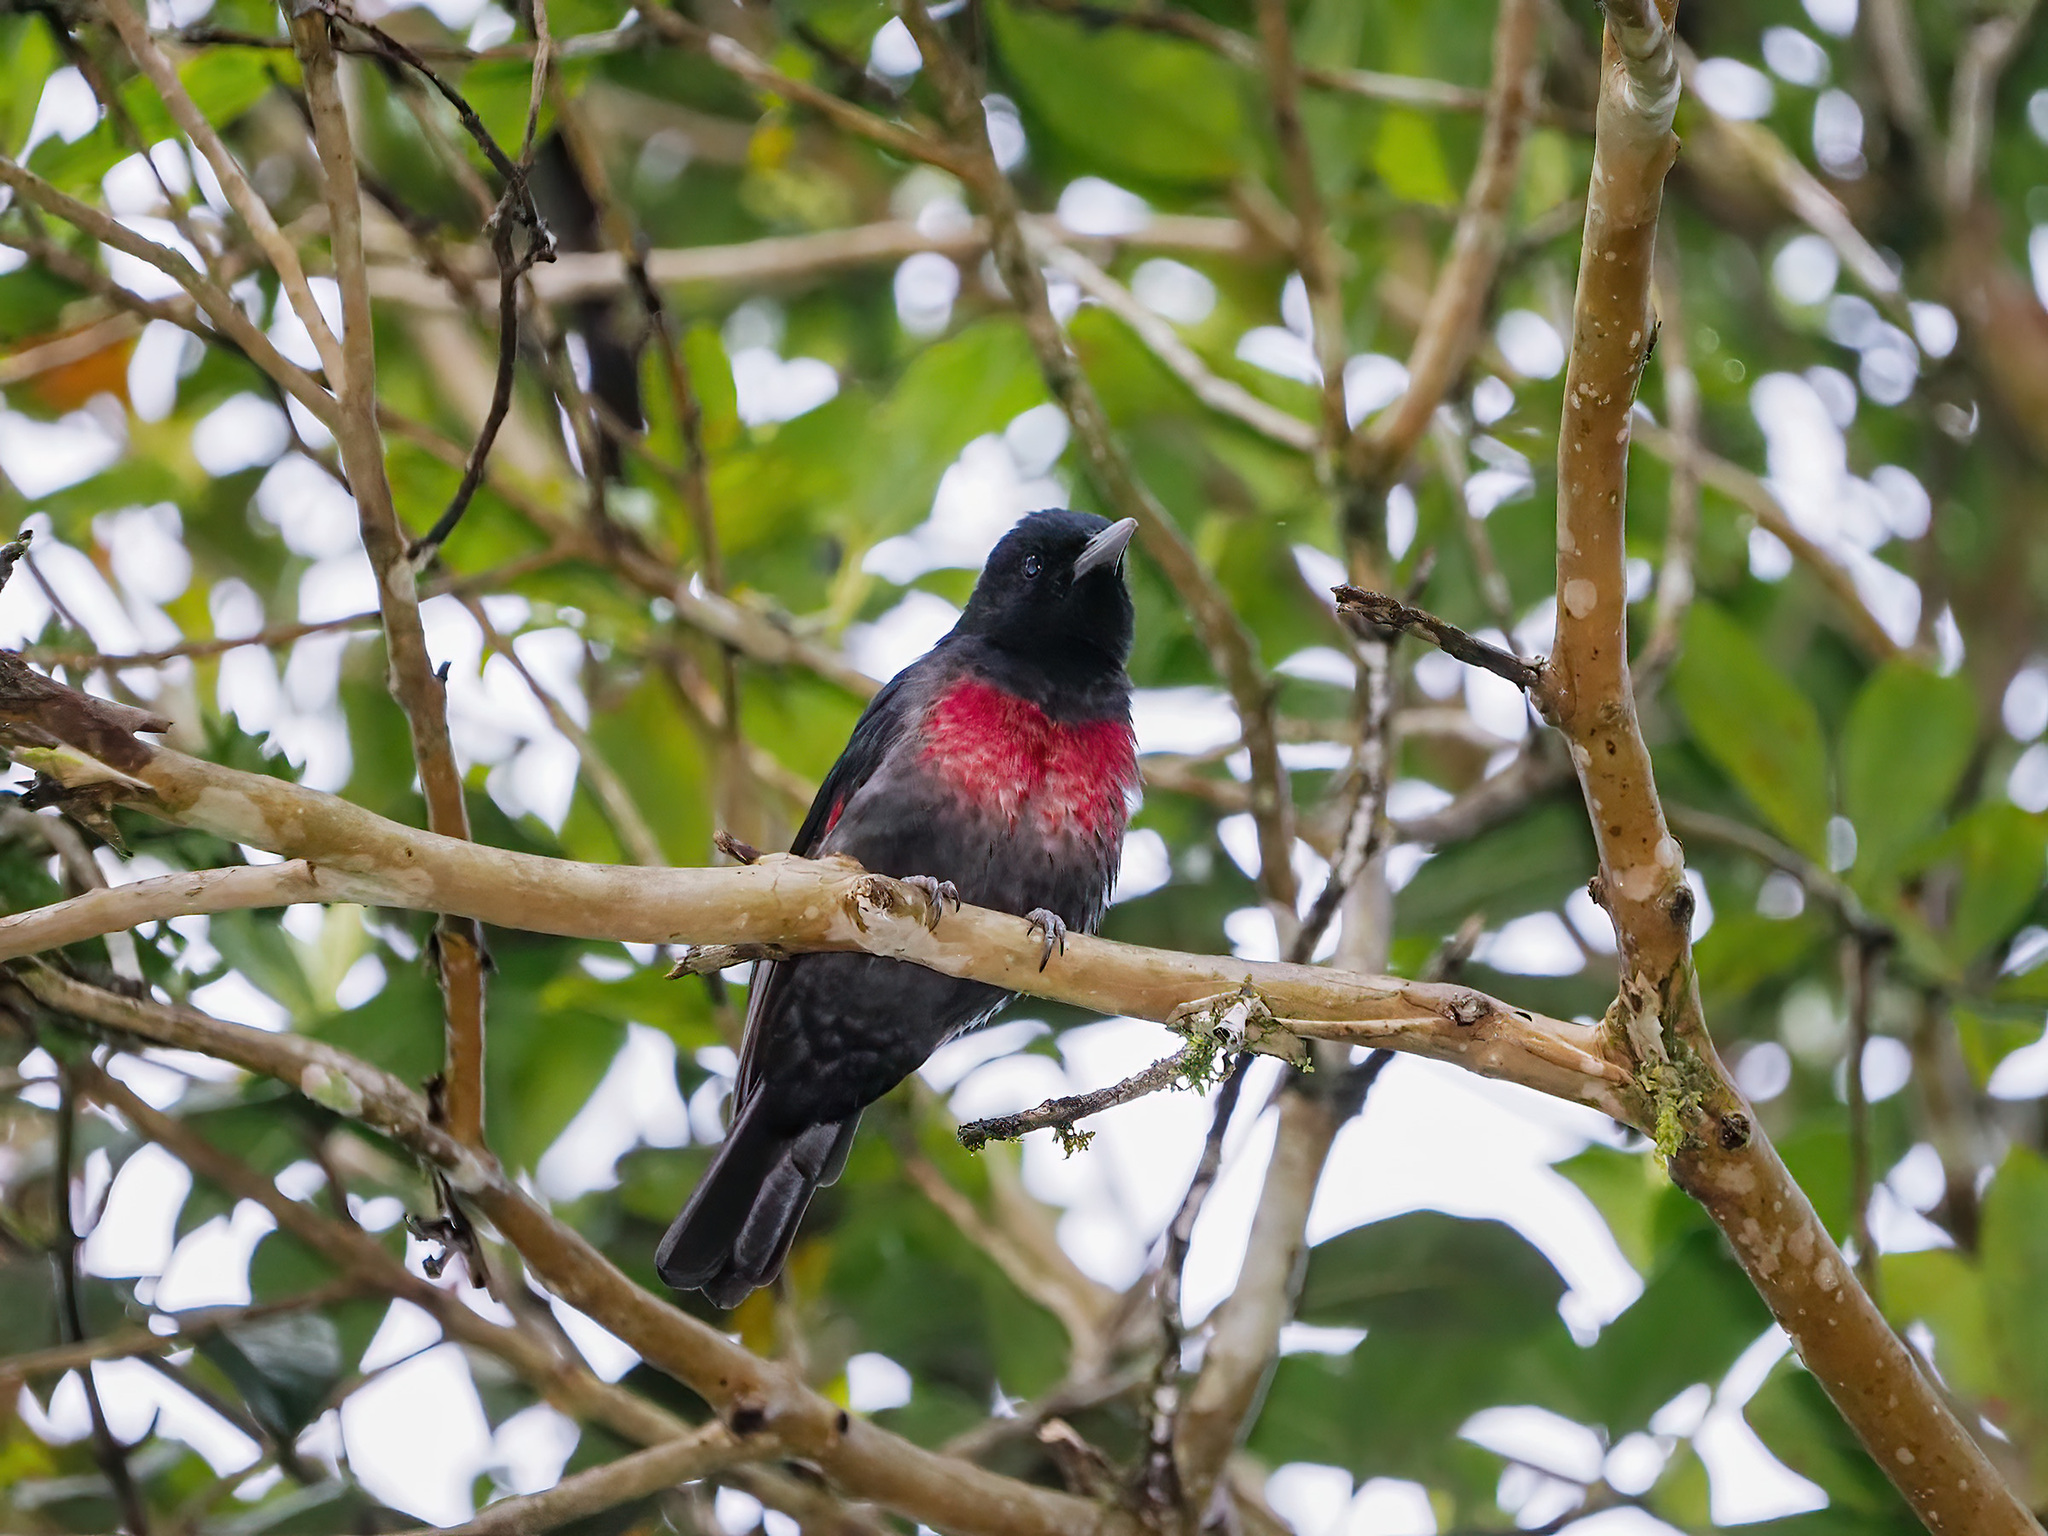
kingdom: Animalia
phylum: Chordata
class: Aves
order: Passeriformes
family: Oriolidae
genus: Oriolus
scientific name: Oriolus cruentus
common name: Black-and-crimson oriole
